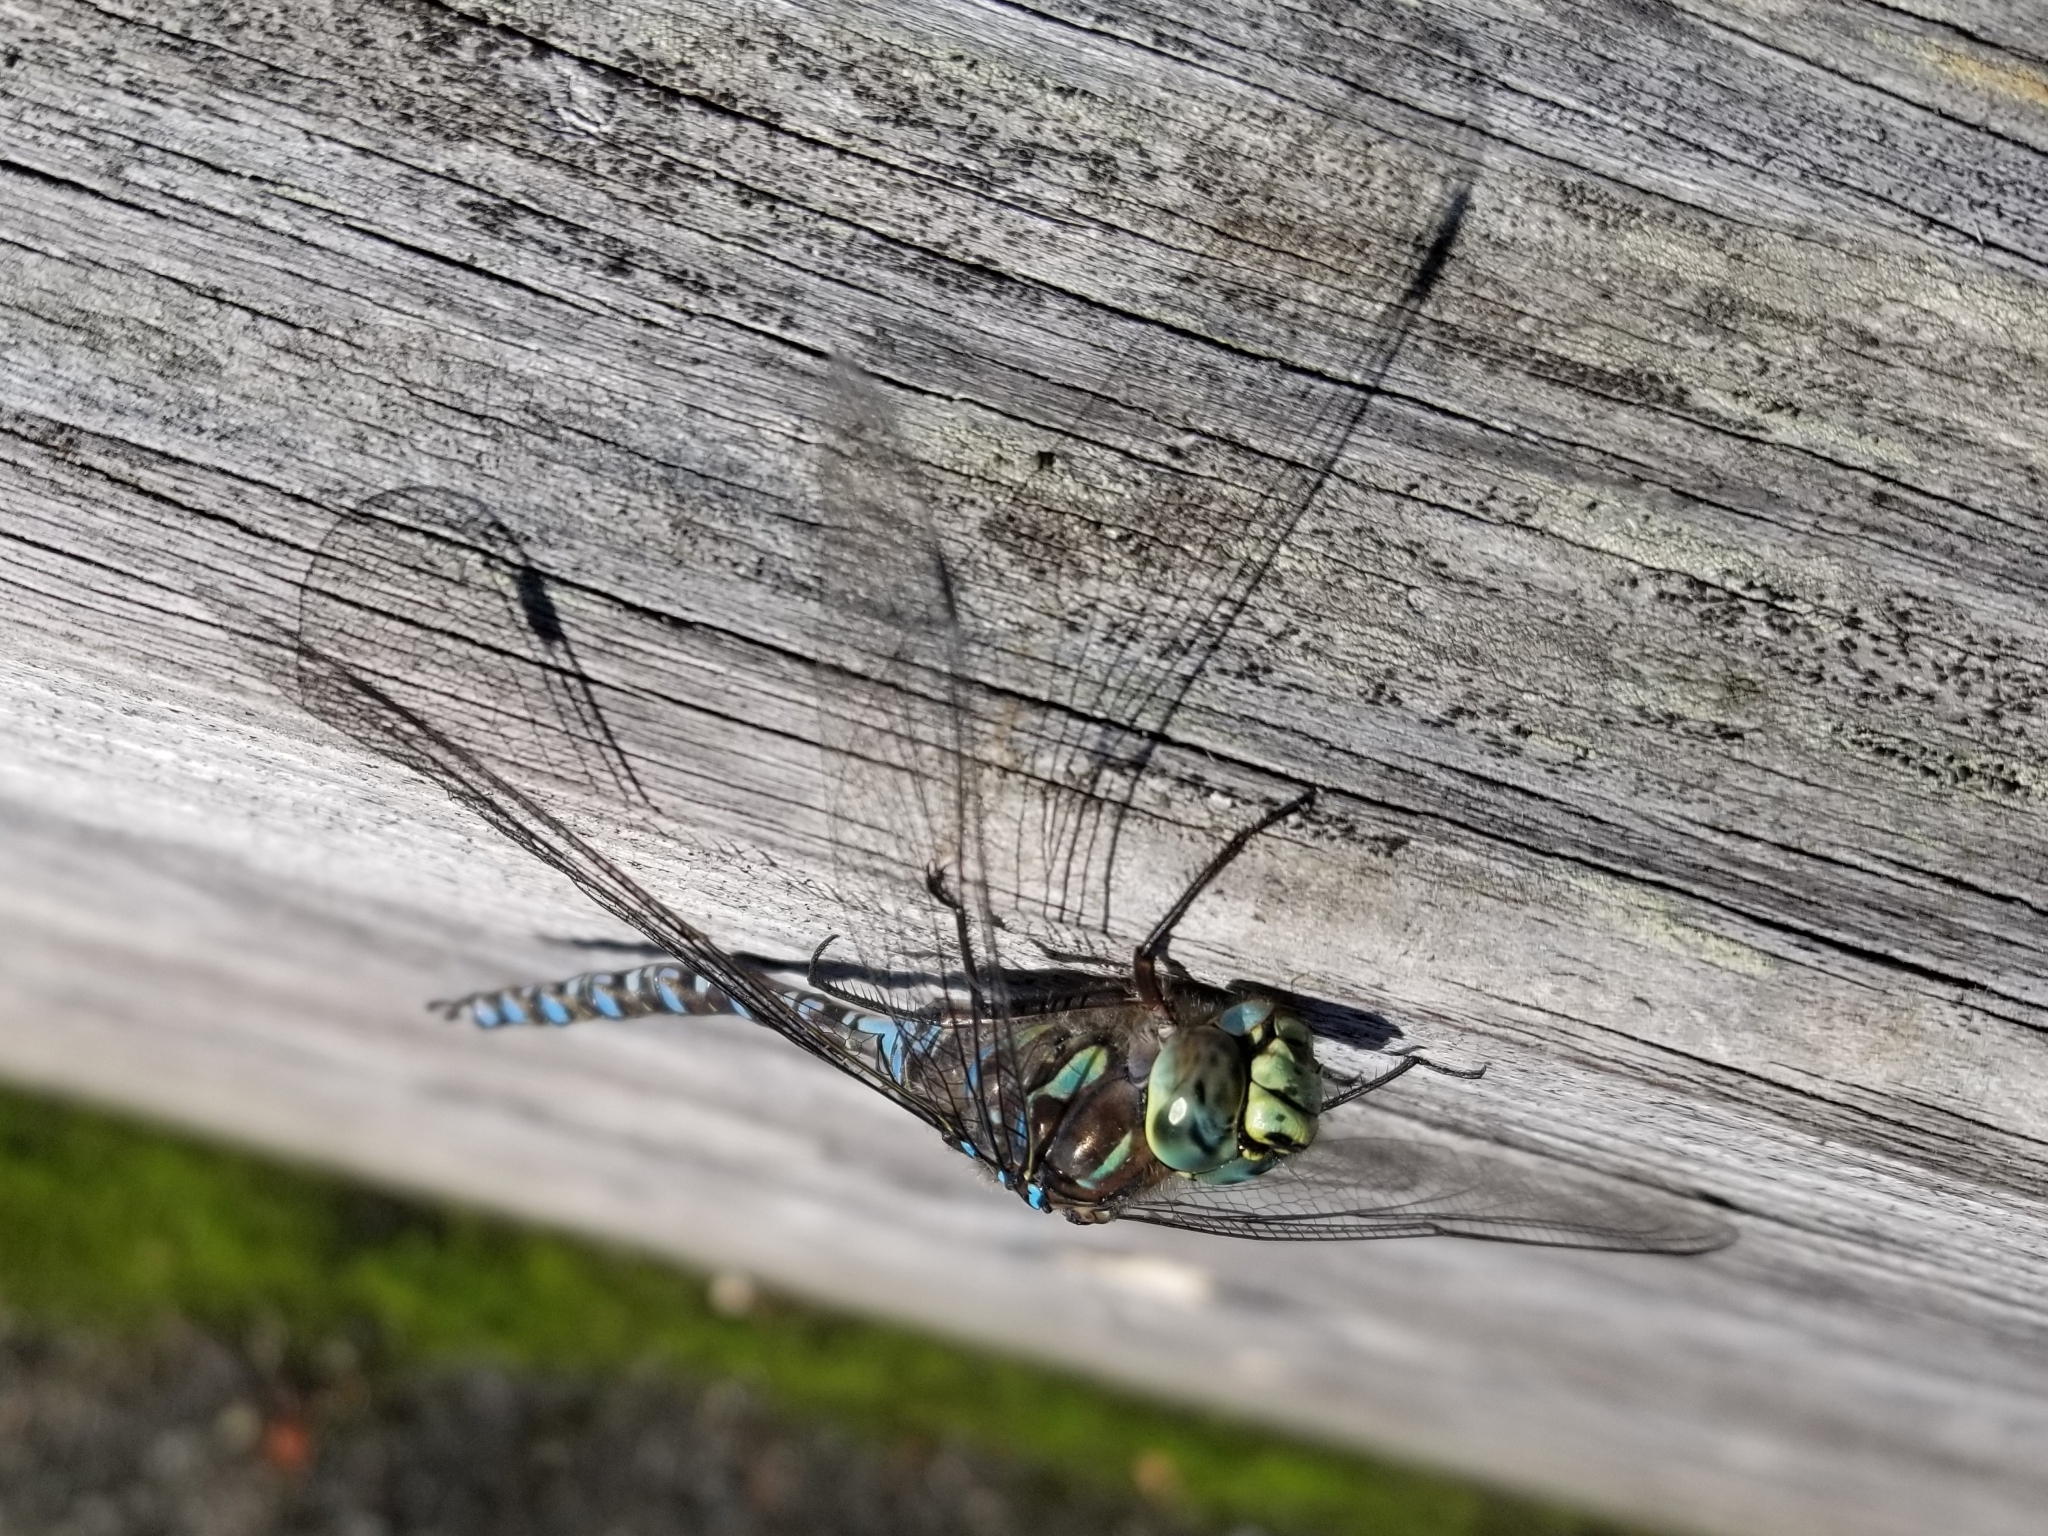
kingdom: Animalia
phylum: Arthropoda
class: Insecta
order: Odonata
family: Aeshnidae
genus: Aeshna
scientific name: Aeshna eremita
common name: Lake darner
